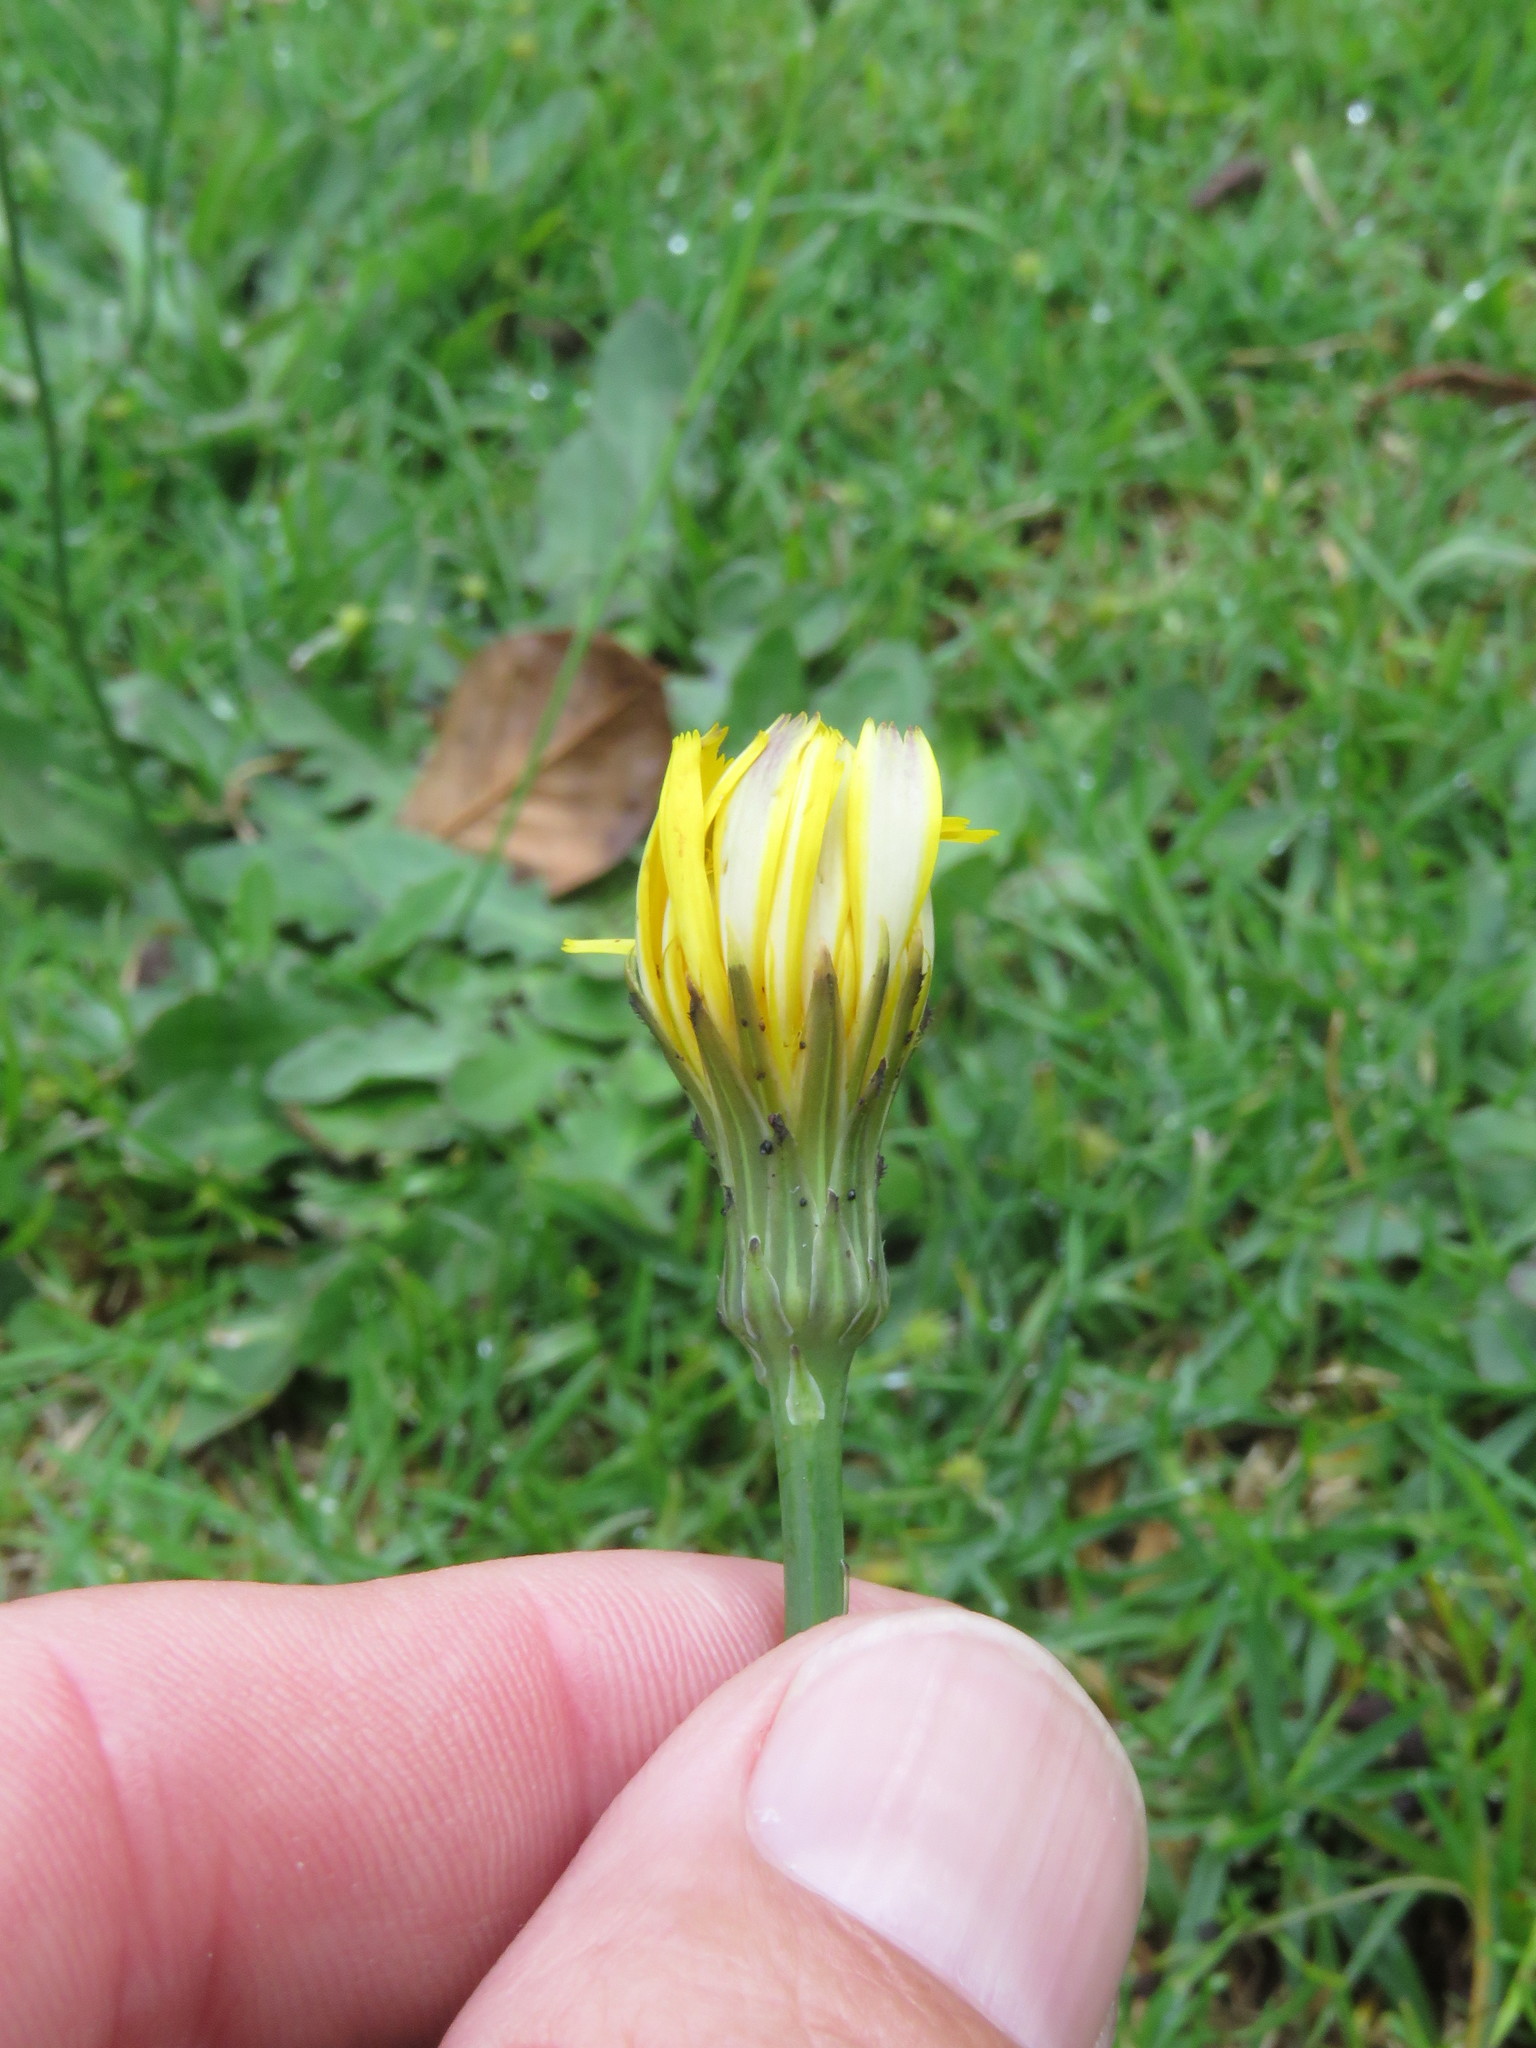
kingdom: Plantae
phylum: Tracheophyta
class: Magnoliopsida
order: Asterales
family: Asteraceae
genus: Hypochaeris
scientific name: Hypochaeris radicata
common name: Flatweed
